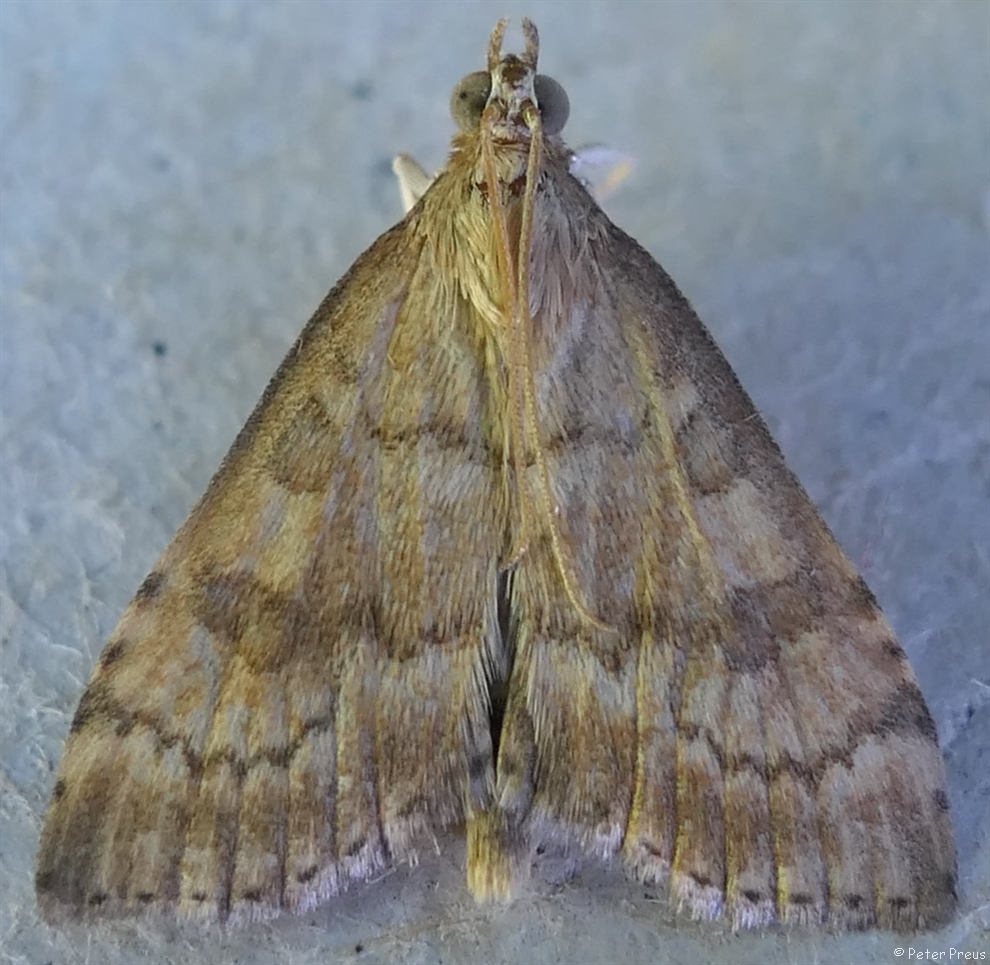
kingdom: Animalia
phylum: Arthropoda
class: Insecta
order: Lepidoptera
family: Crambidae
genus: Udea
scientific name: Udea fulvalis
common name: Fulvous pearl
